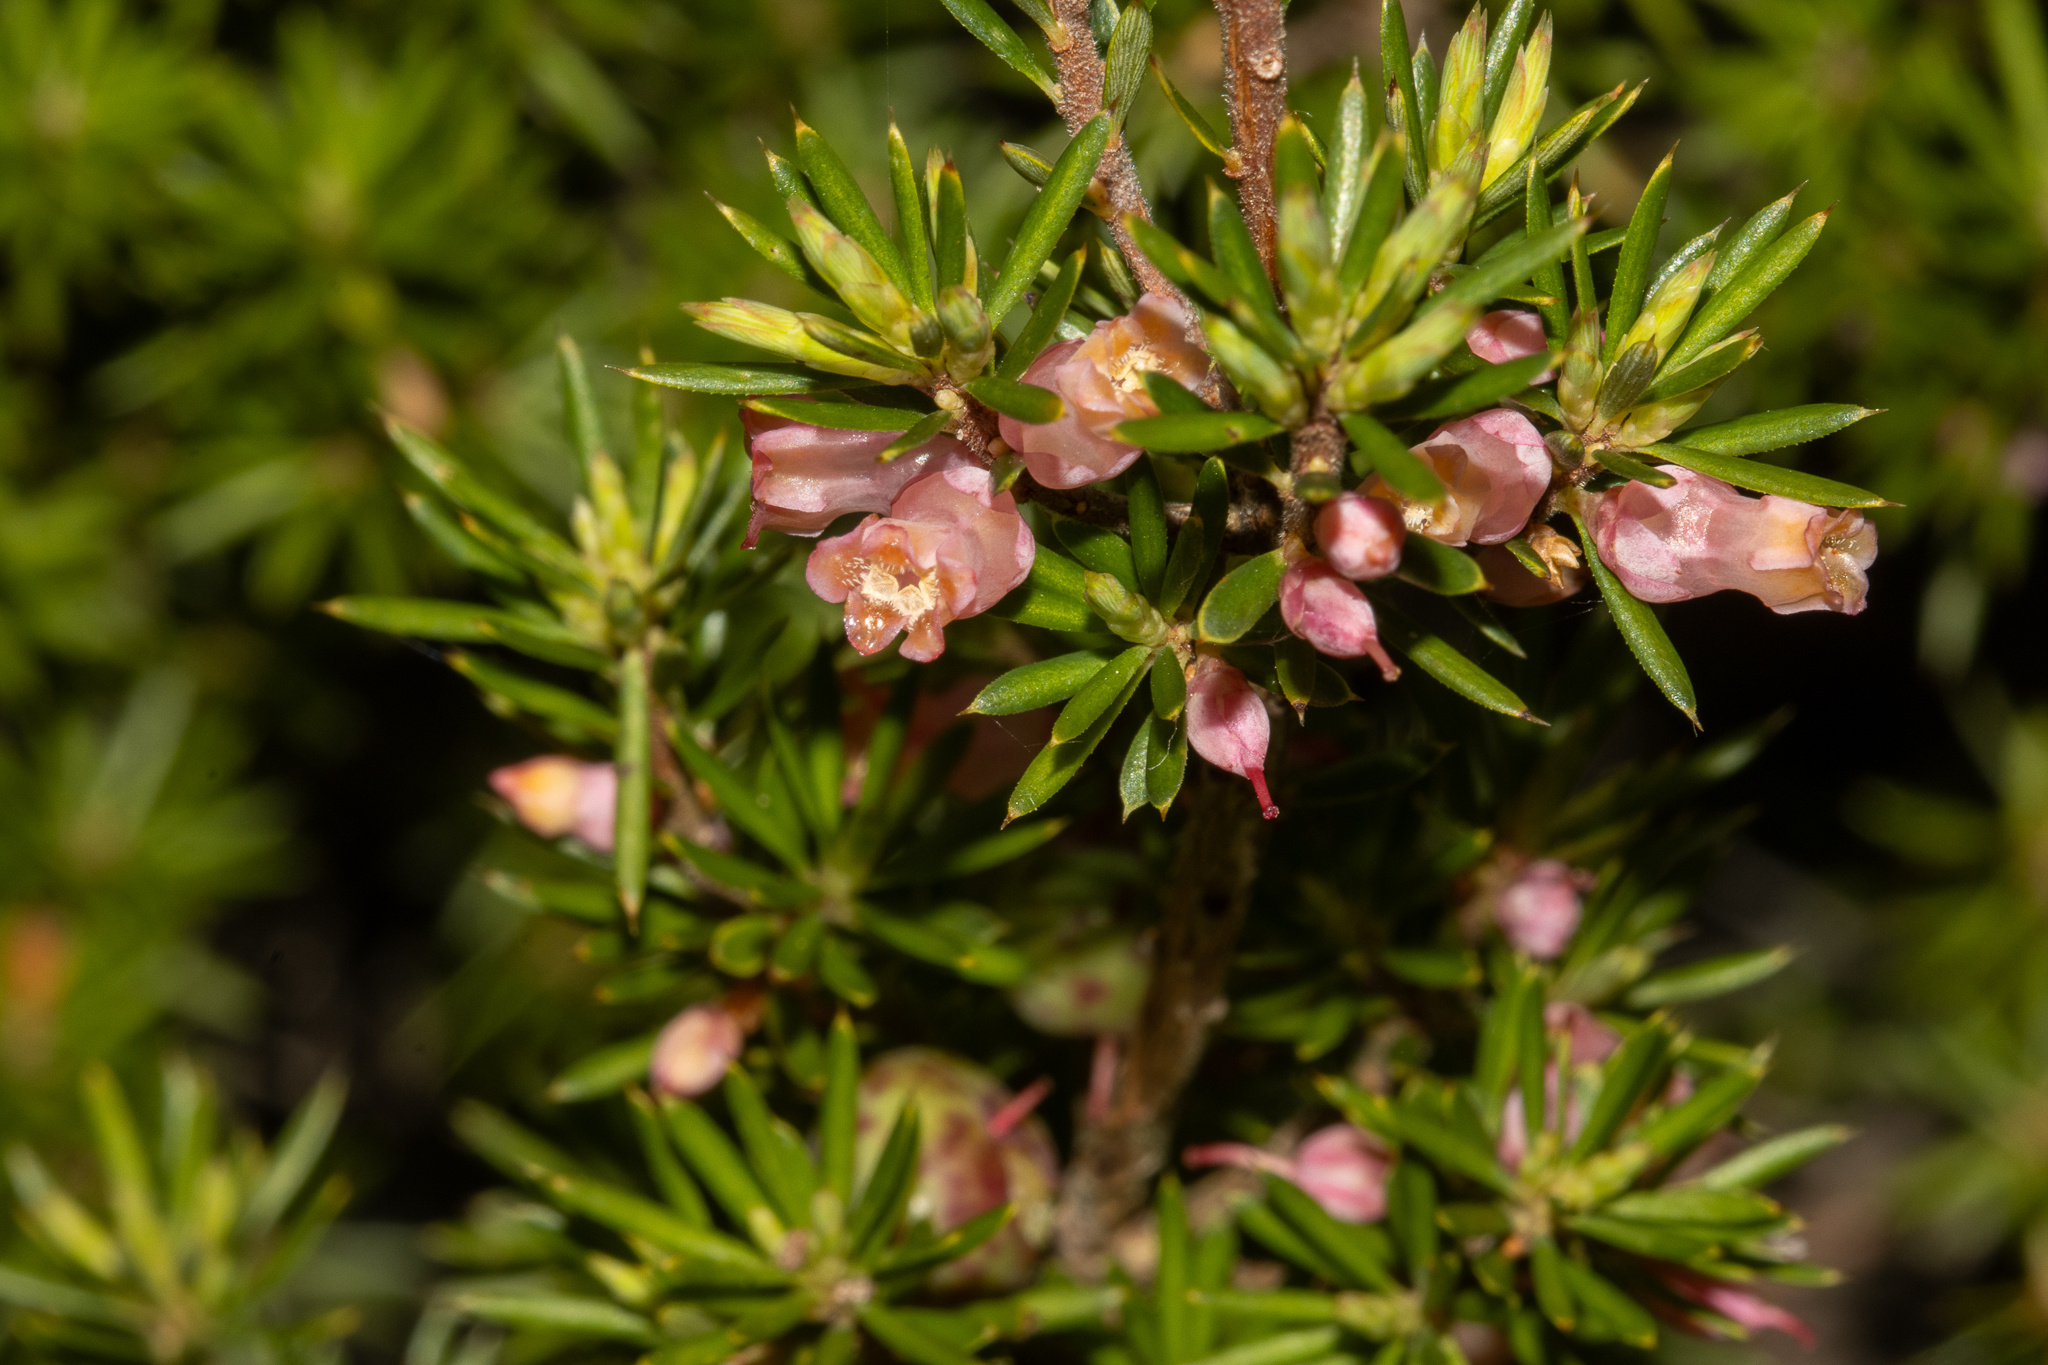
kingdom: Plantae
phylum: Tracheophyta
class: Magnoliopsida
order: Ericales
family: Ericaceae
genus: Brachyloma
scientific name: Brachyloma ericoides
